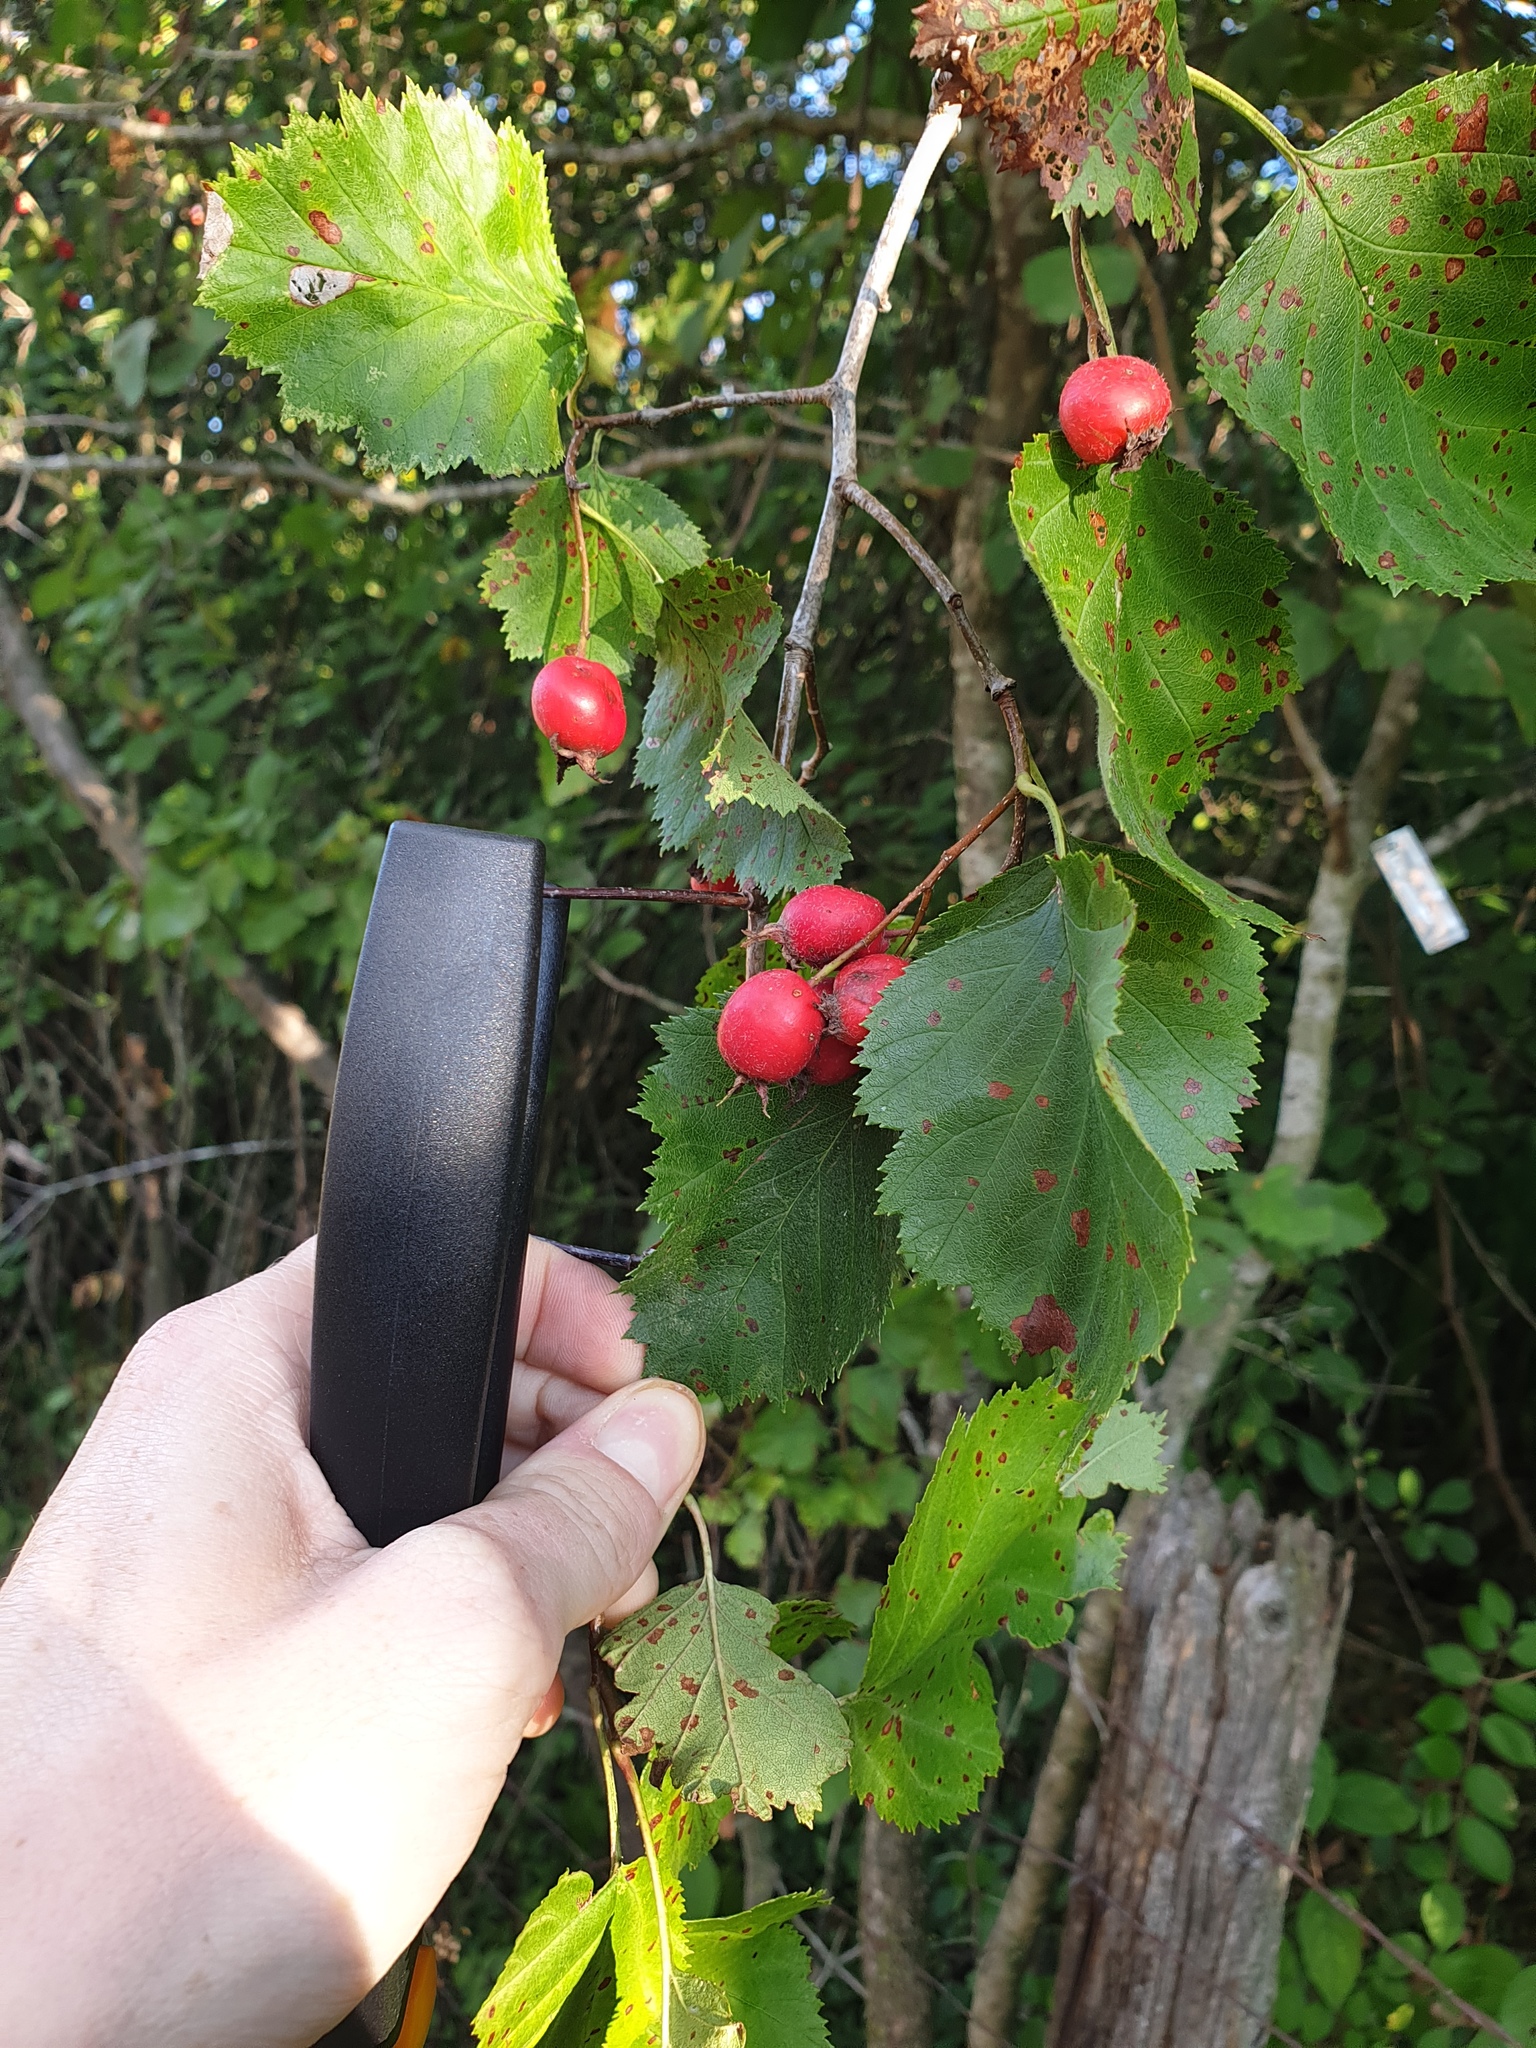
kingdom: Plantae
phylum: Tracheophyta
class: Magnoliopsida
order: Rosales
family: Rosaceae
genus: Crataegus
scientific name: Crataegus submollis
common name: Hairy cockspurthorn
